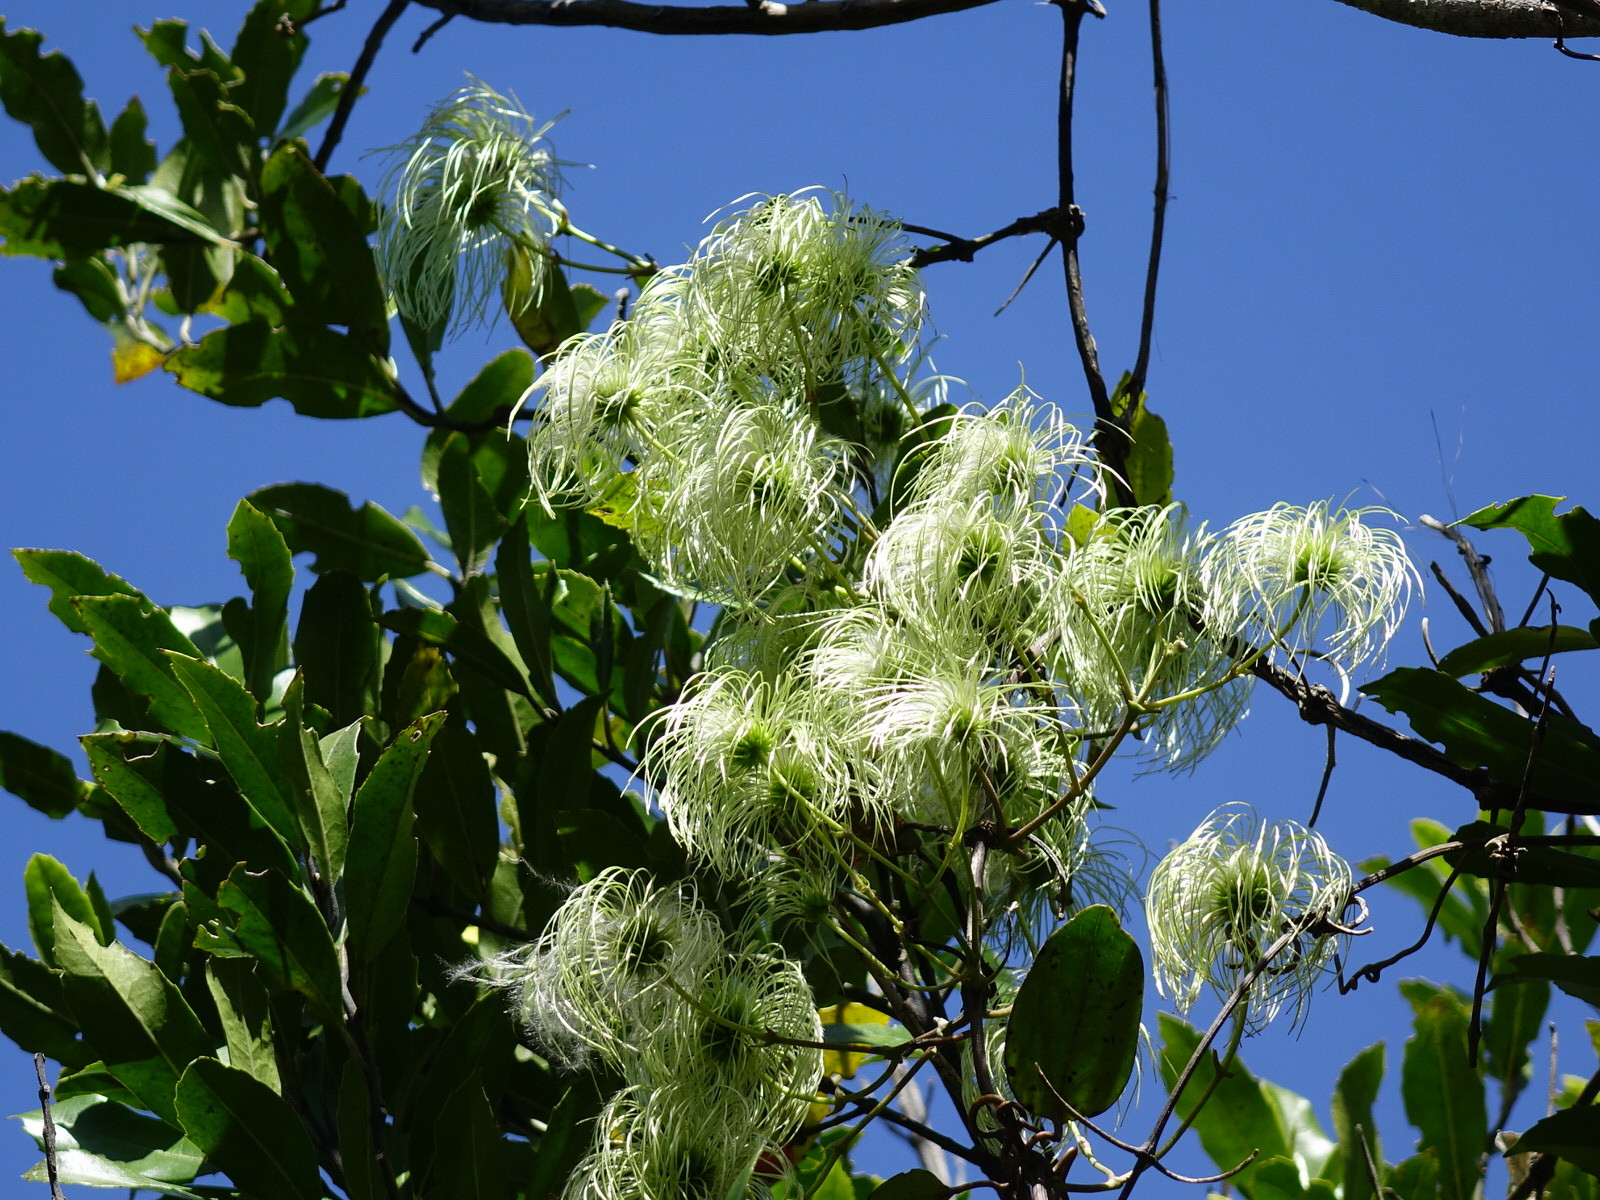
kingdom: Plantae
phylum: Tracheophyta
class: Magnoliopsida
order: Ranunculales
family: Ranunculaceae
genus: Clematis
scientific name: Clematis paniculata
